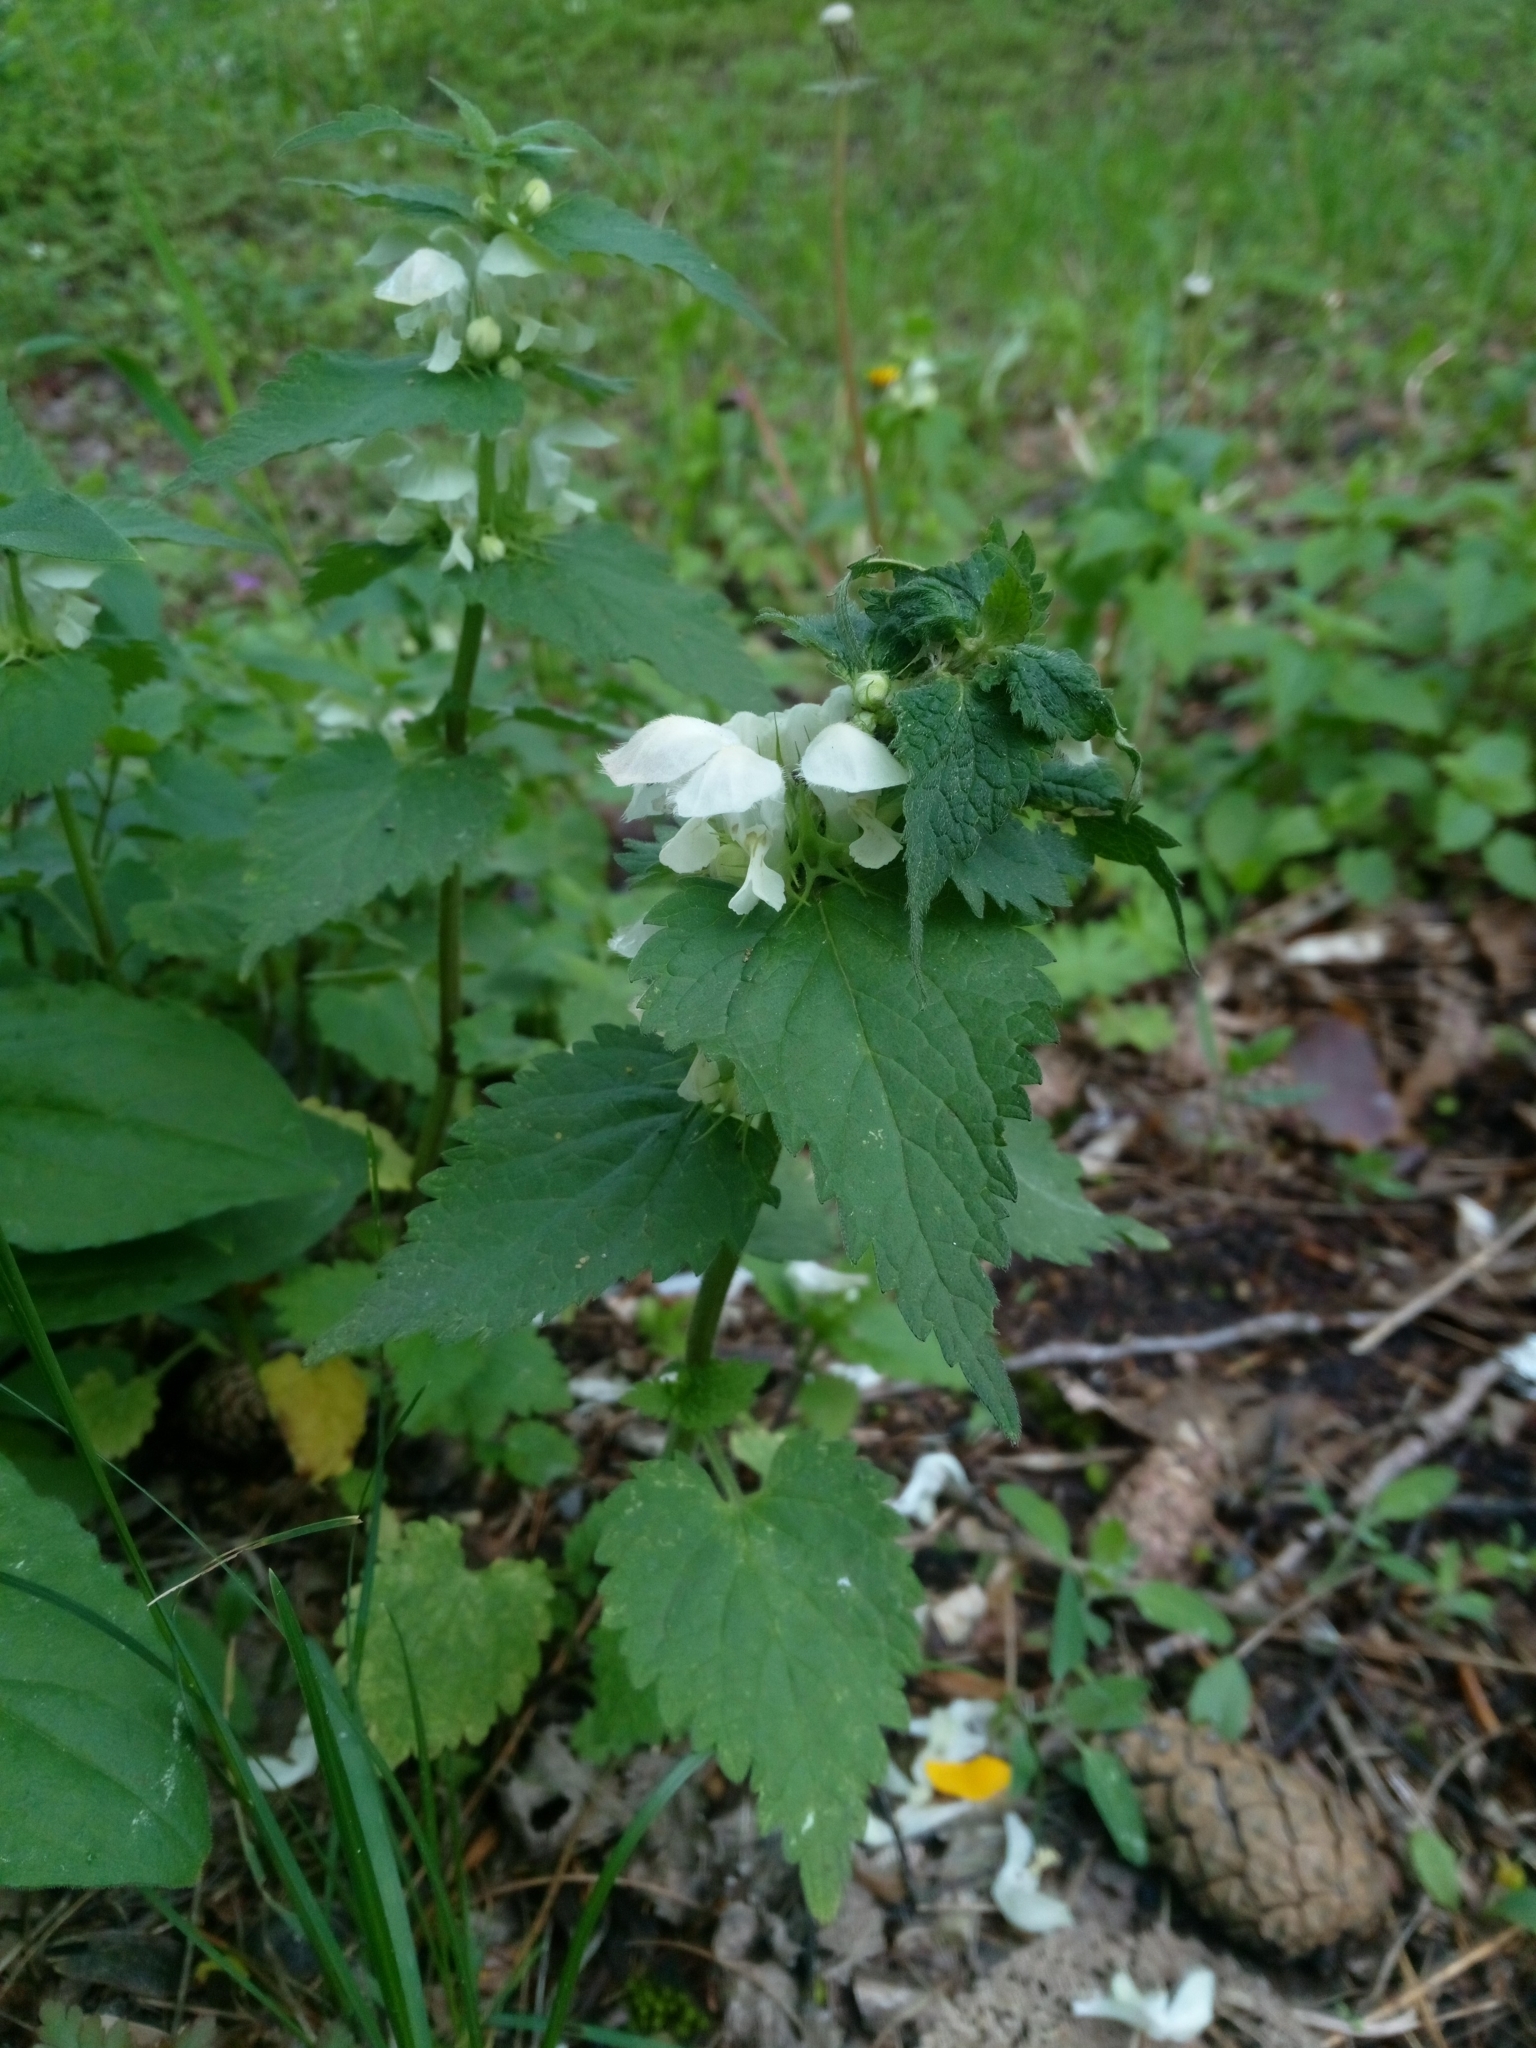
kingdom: Plantae
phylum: Tracheophyta
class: Magnoliopsida
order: Lamiales
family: Lamiaceae
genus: Lamium
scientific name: Lamium album
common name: White dead-nettle
